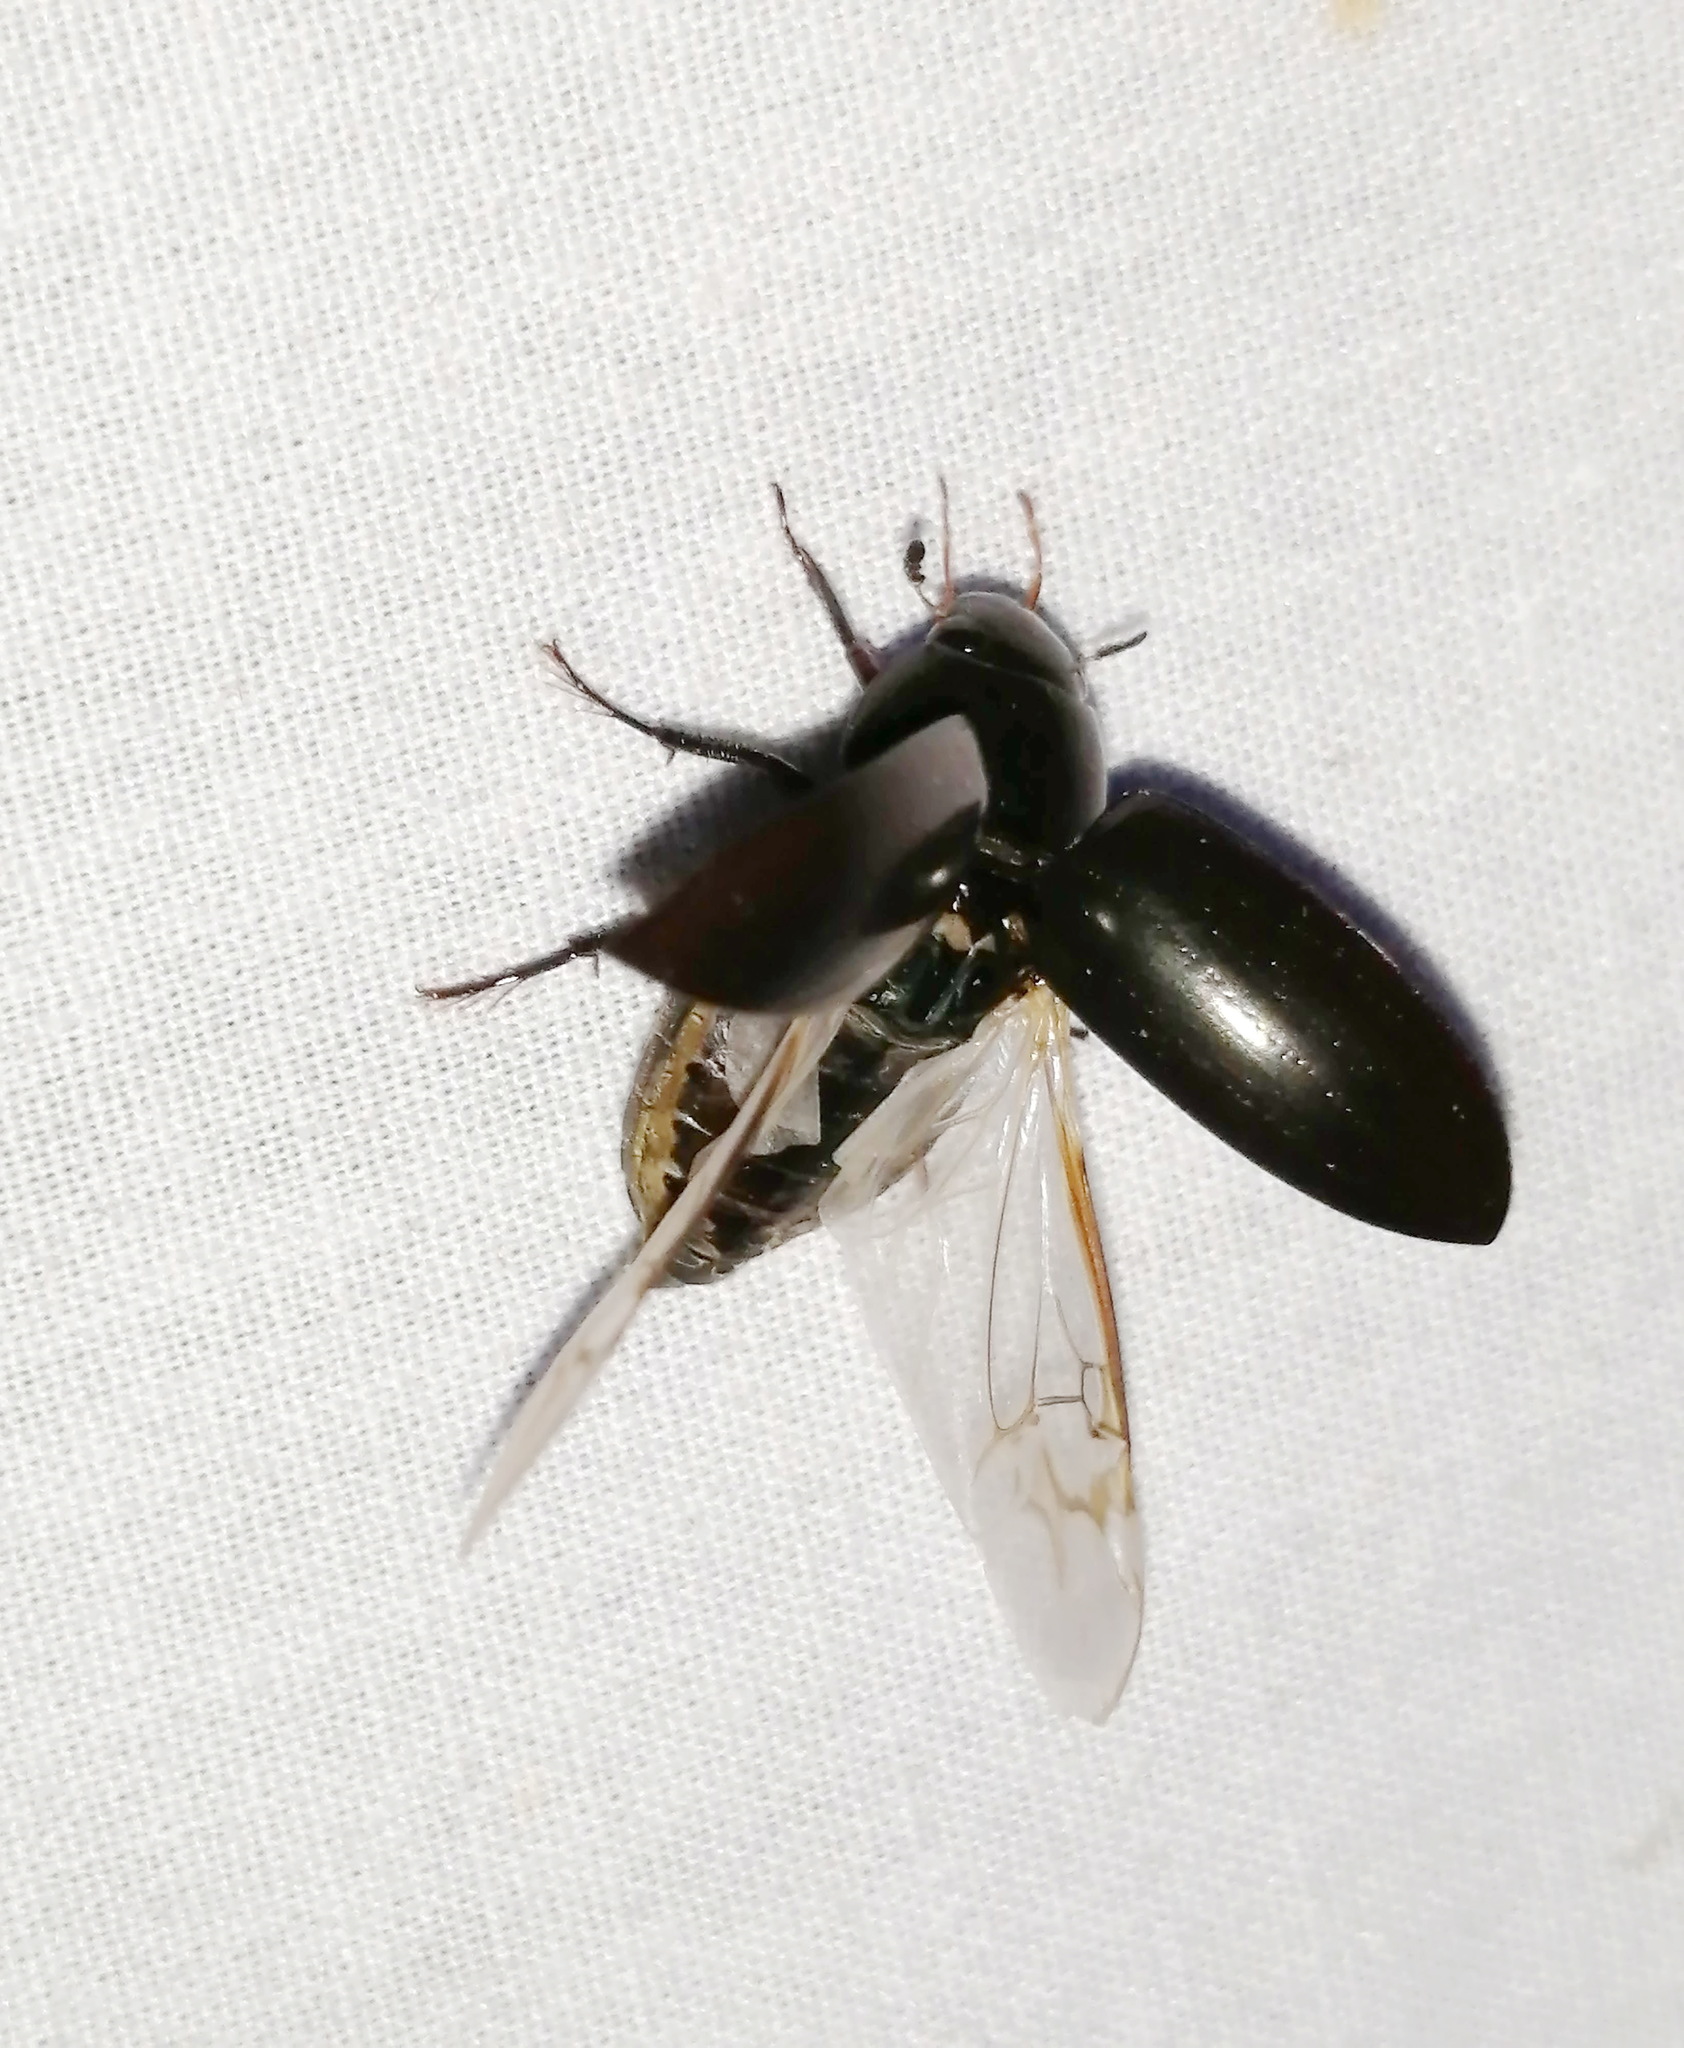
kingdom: Animalia
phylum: Arthropoda
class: Insecta
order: Coleoptera
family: Hydrophilidae
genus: Hydrophilus
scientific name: Hydrophilus ovatus
